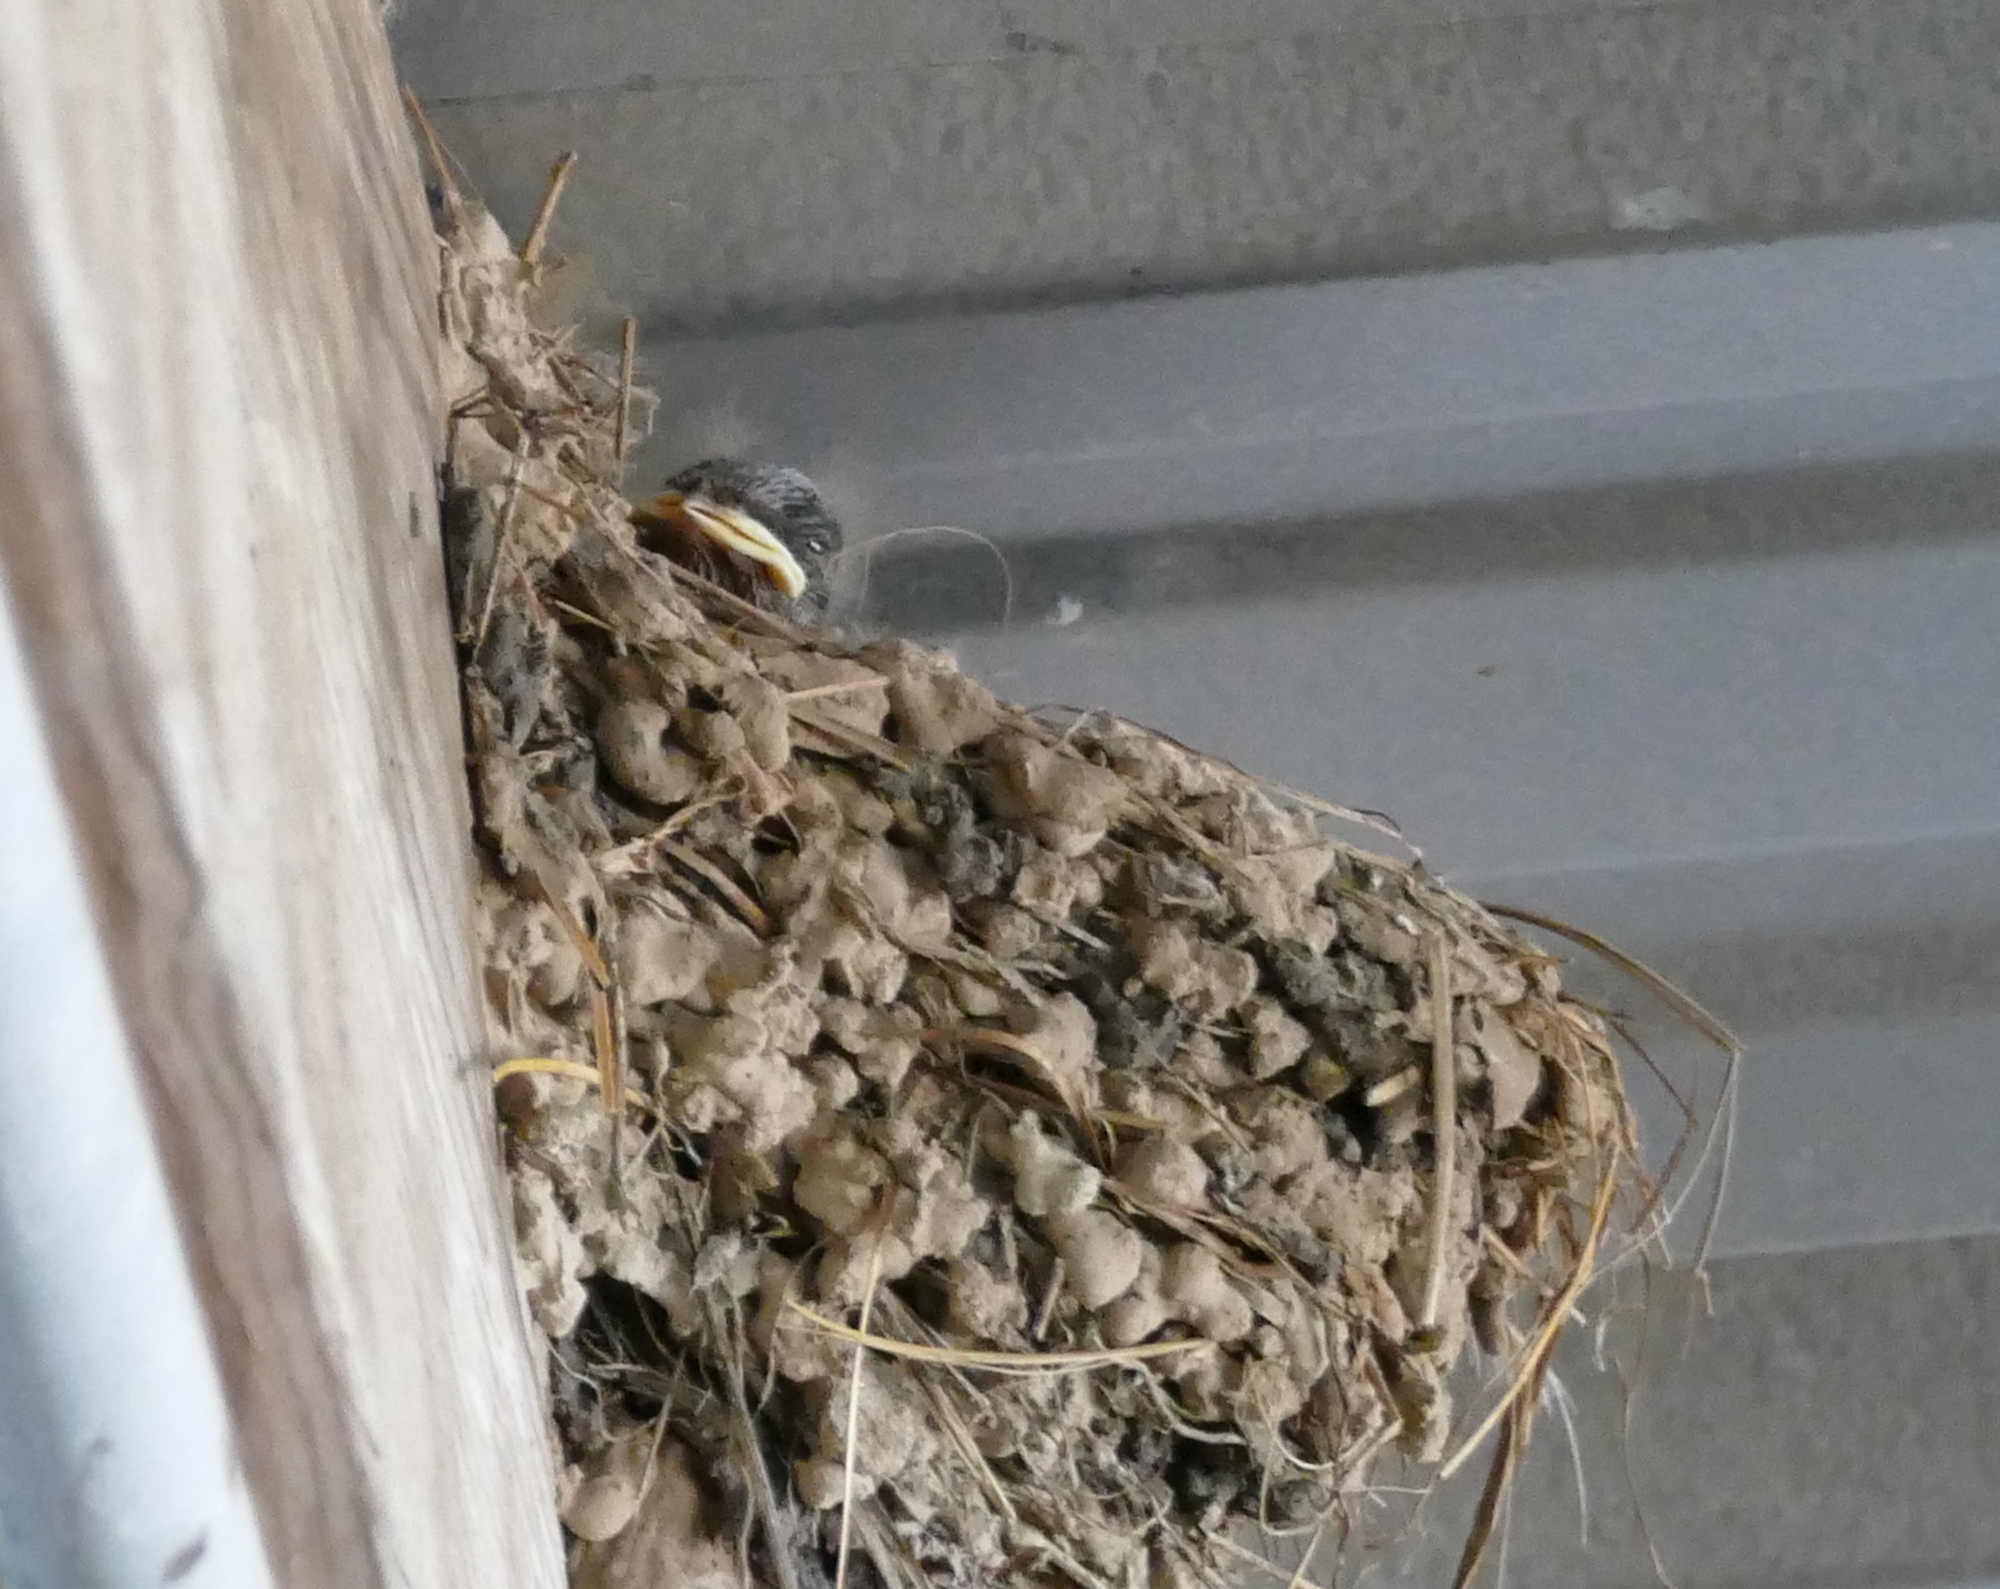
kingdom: Animalia
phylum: Chordata
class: Aves
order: Passeriformes
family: Hirundinidae
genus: Hirundo
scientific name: Hirundo rustica
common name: Barn swallow
